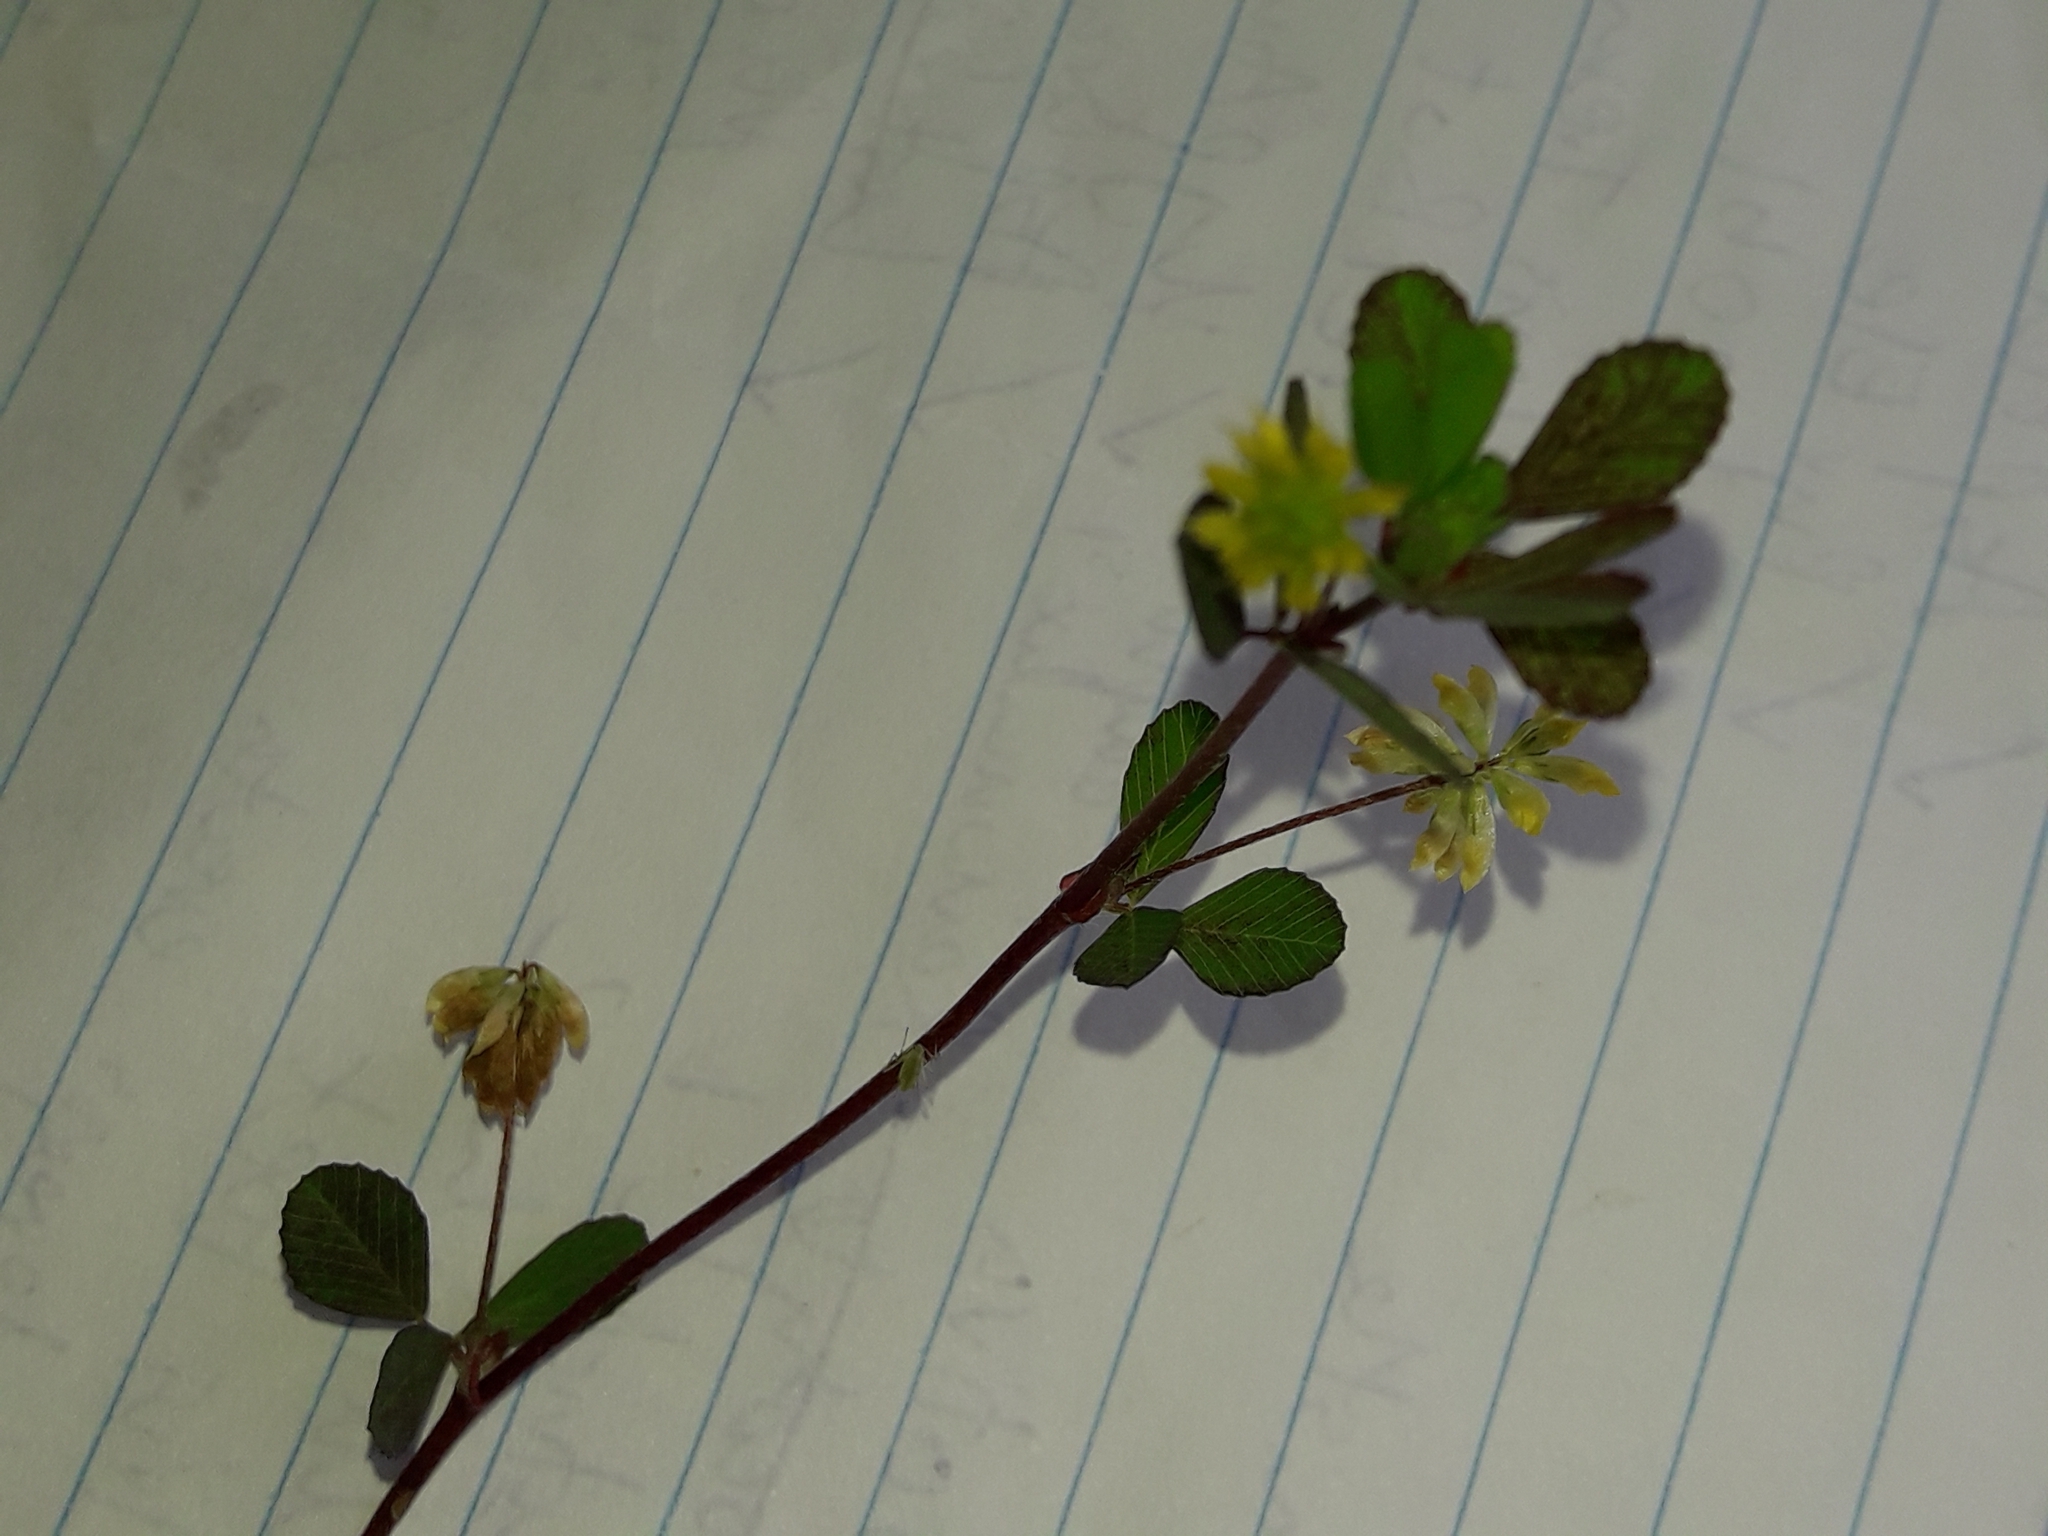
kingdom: Plantae
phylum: Tracheophyta
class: Magnoliopsida
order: Fabales
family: Fabaceae
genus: Trifolium
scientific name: Trifolium dubium
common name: Suckling clover
